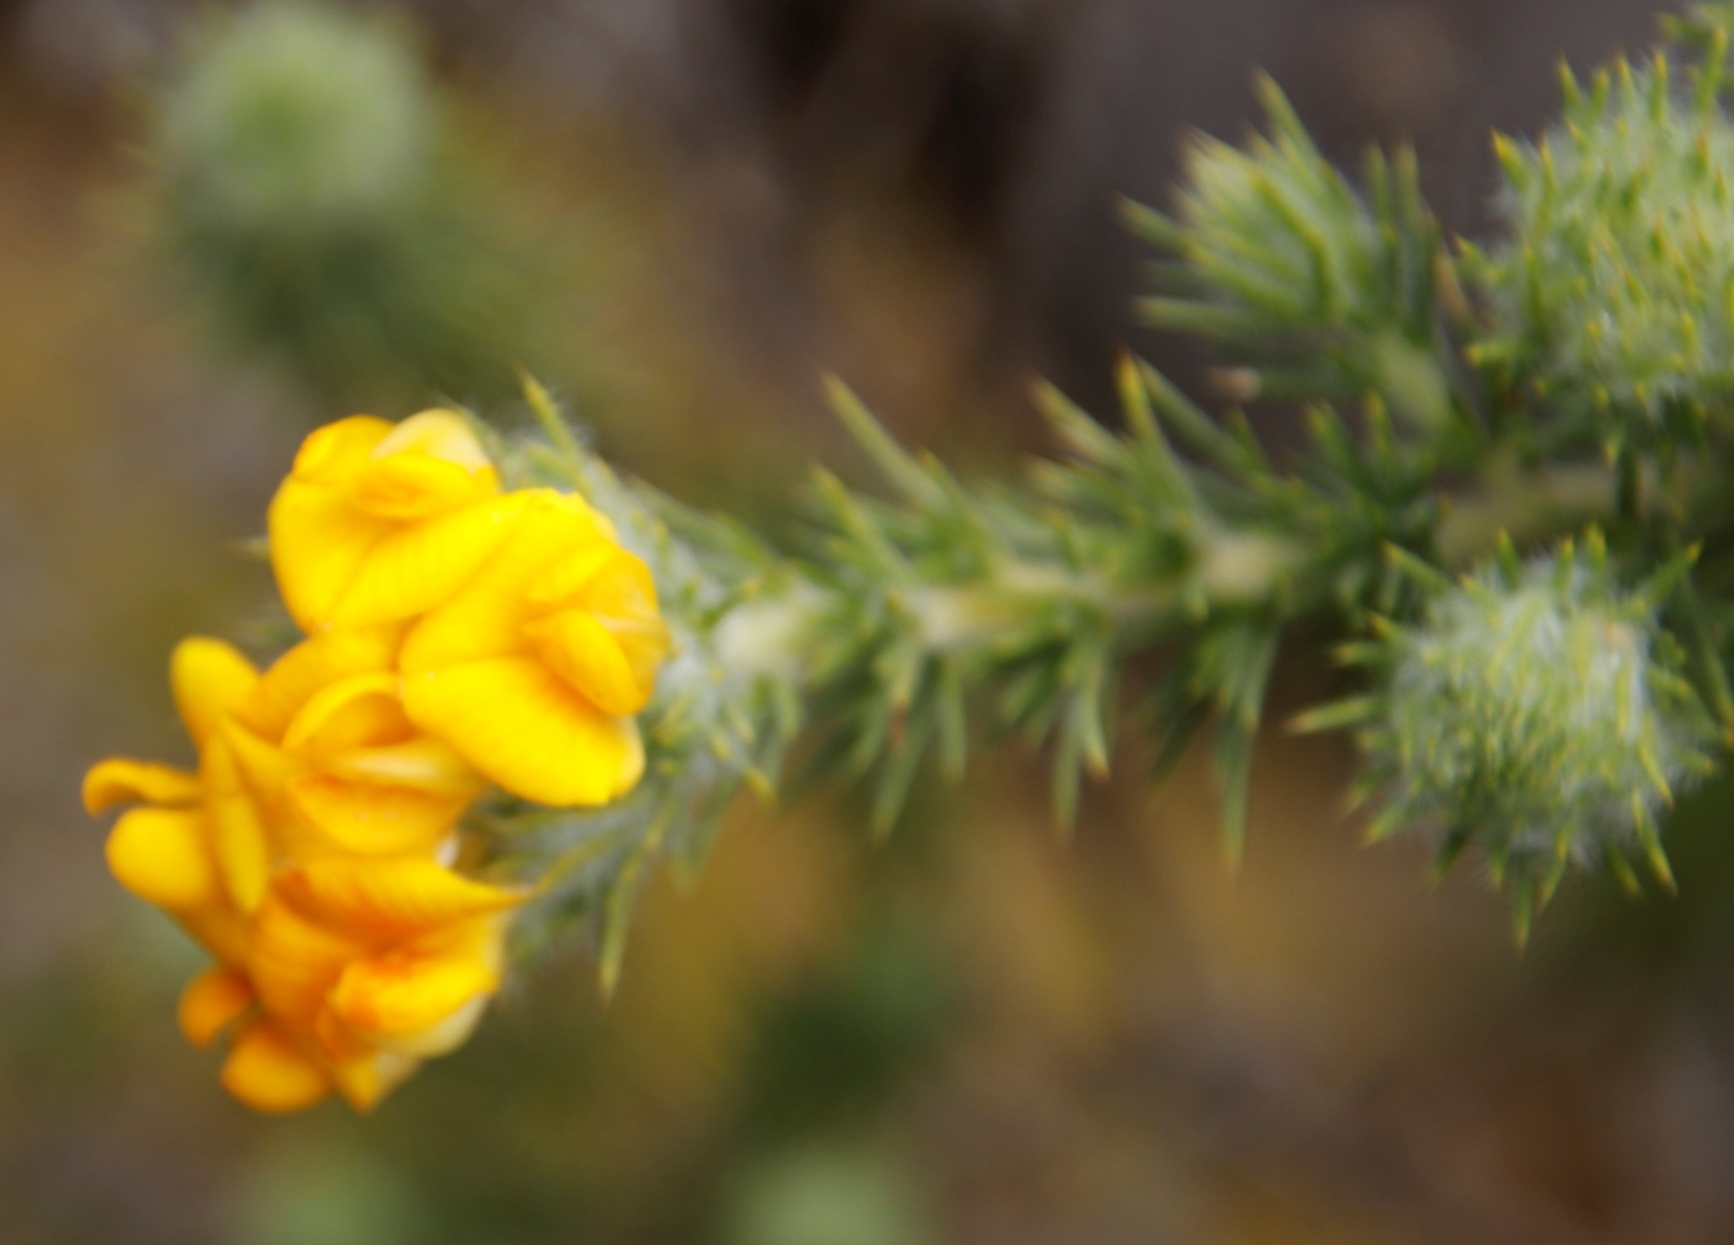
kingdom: Plantae
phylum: Tracheophyta
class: Magnoliopsida
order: Fabales
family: Fabaceae
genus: Aspalathus
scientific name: Aspalathus chenopoda
